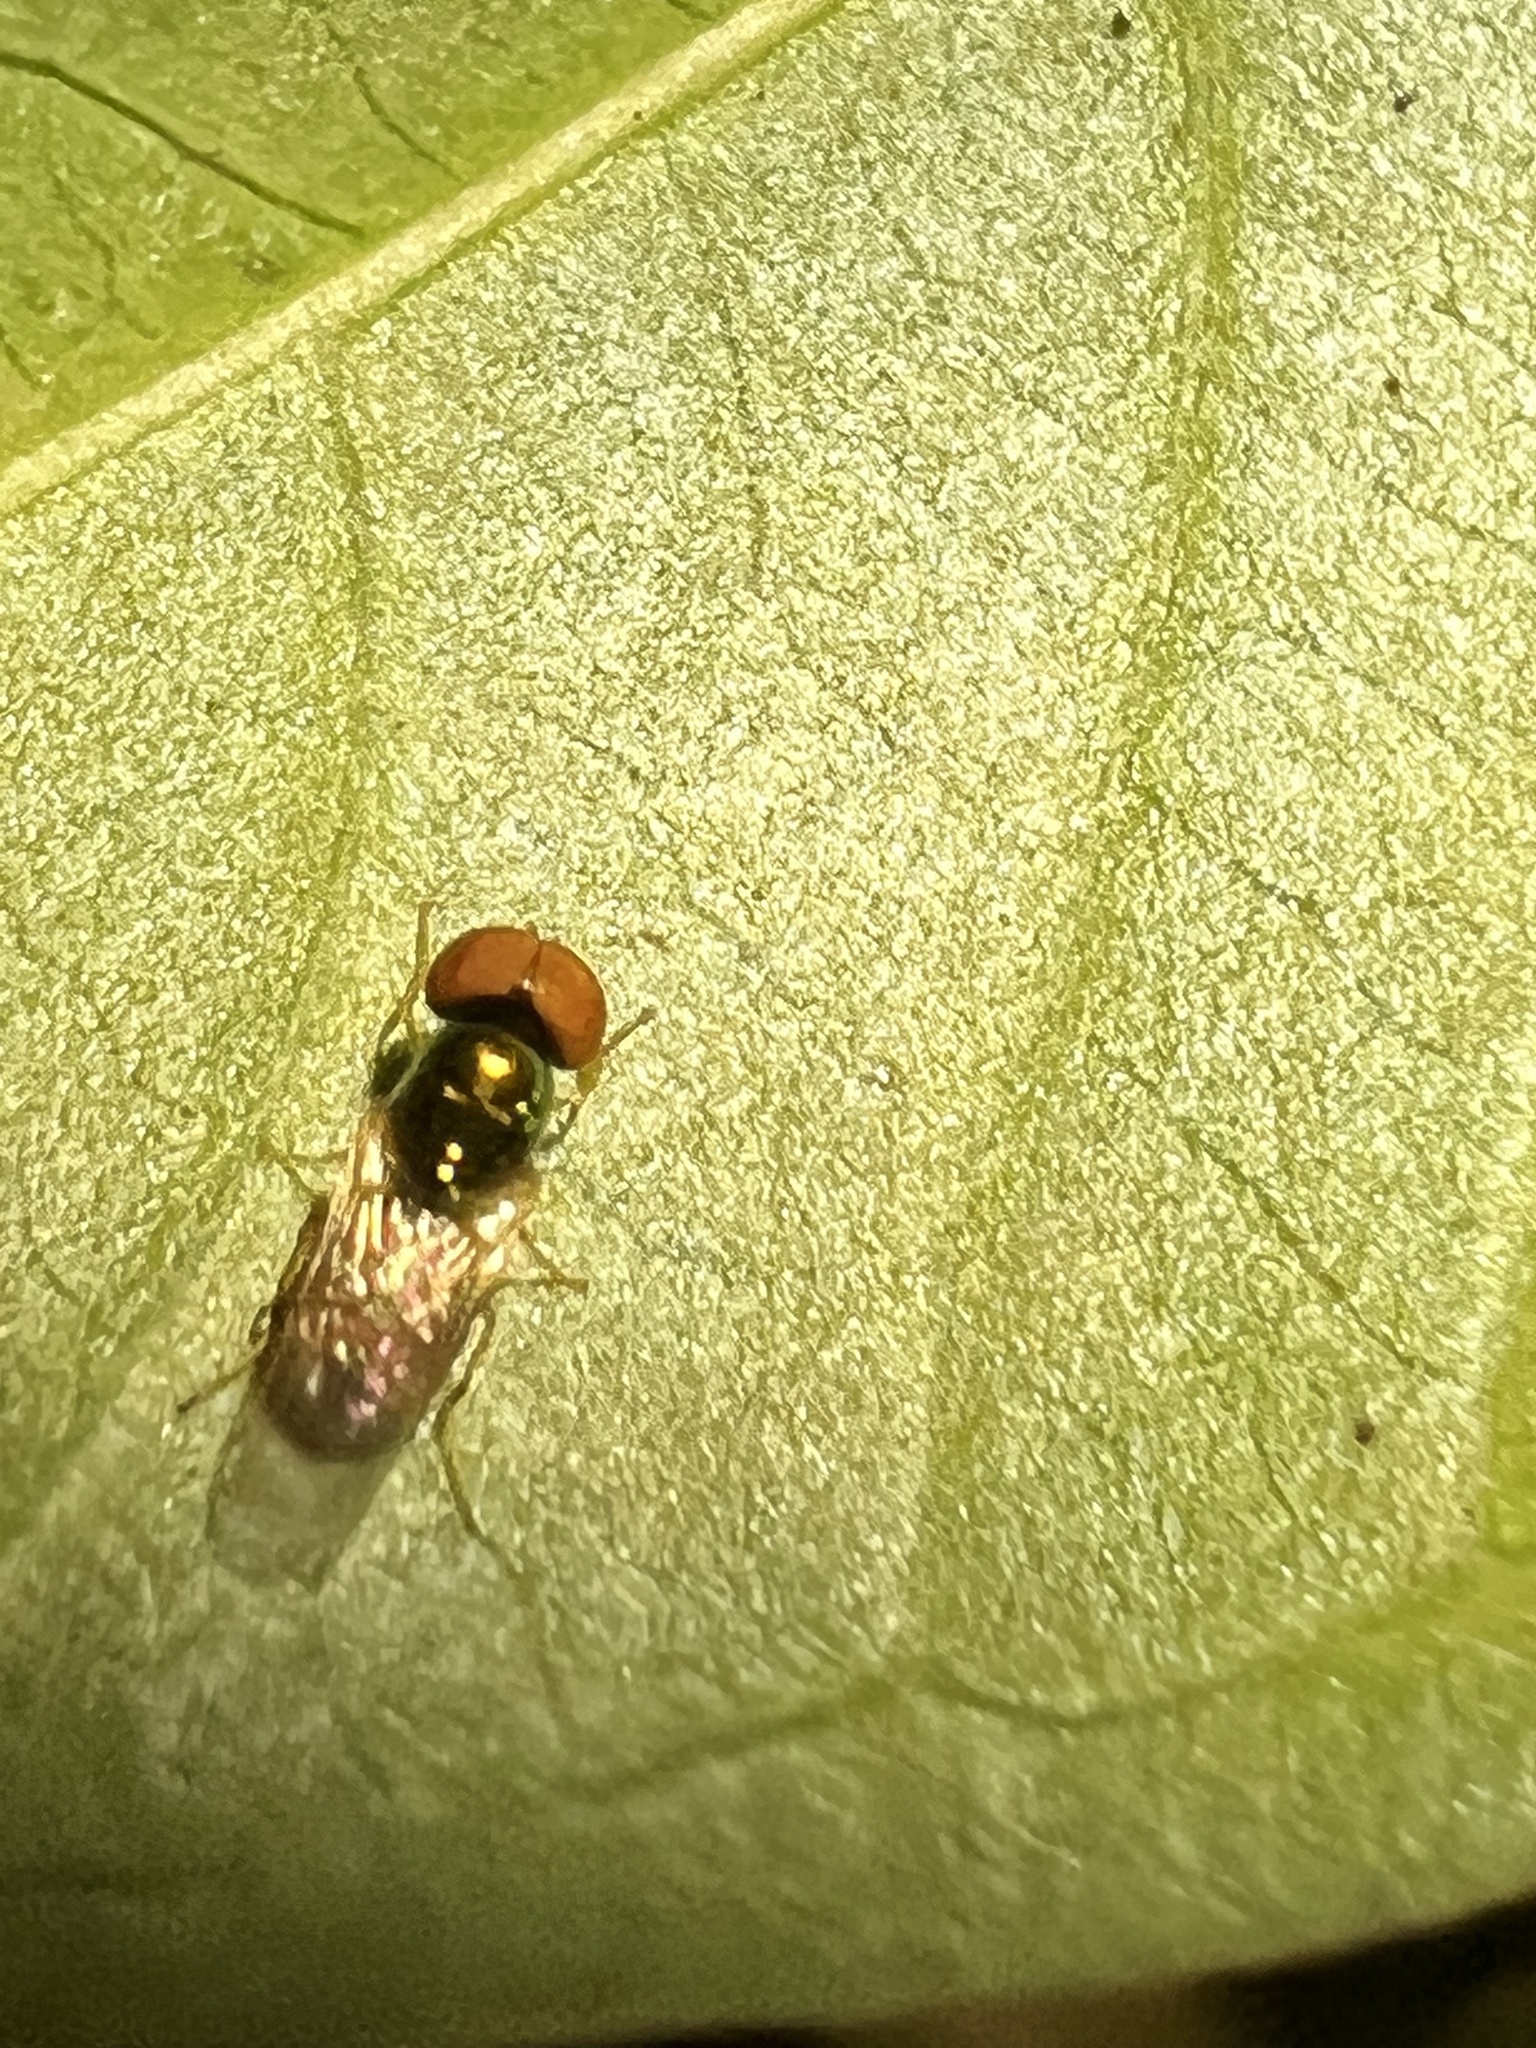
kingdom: Animalia
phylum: Arthropoda
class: Insecta
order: Diptera
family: Stratiomyidae
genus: Microchrysa
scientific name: Microchrysa flaviventris
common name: Soldier fly
